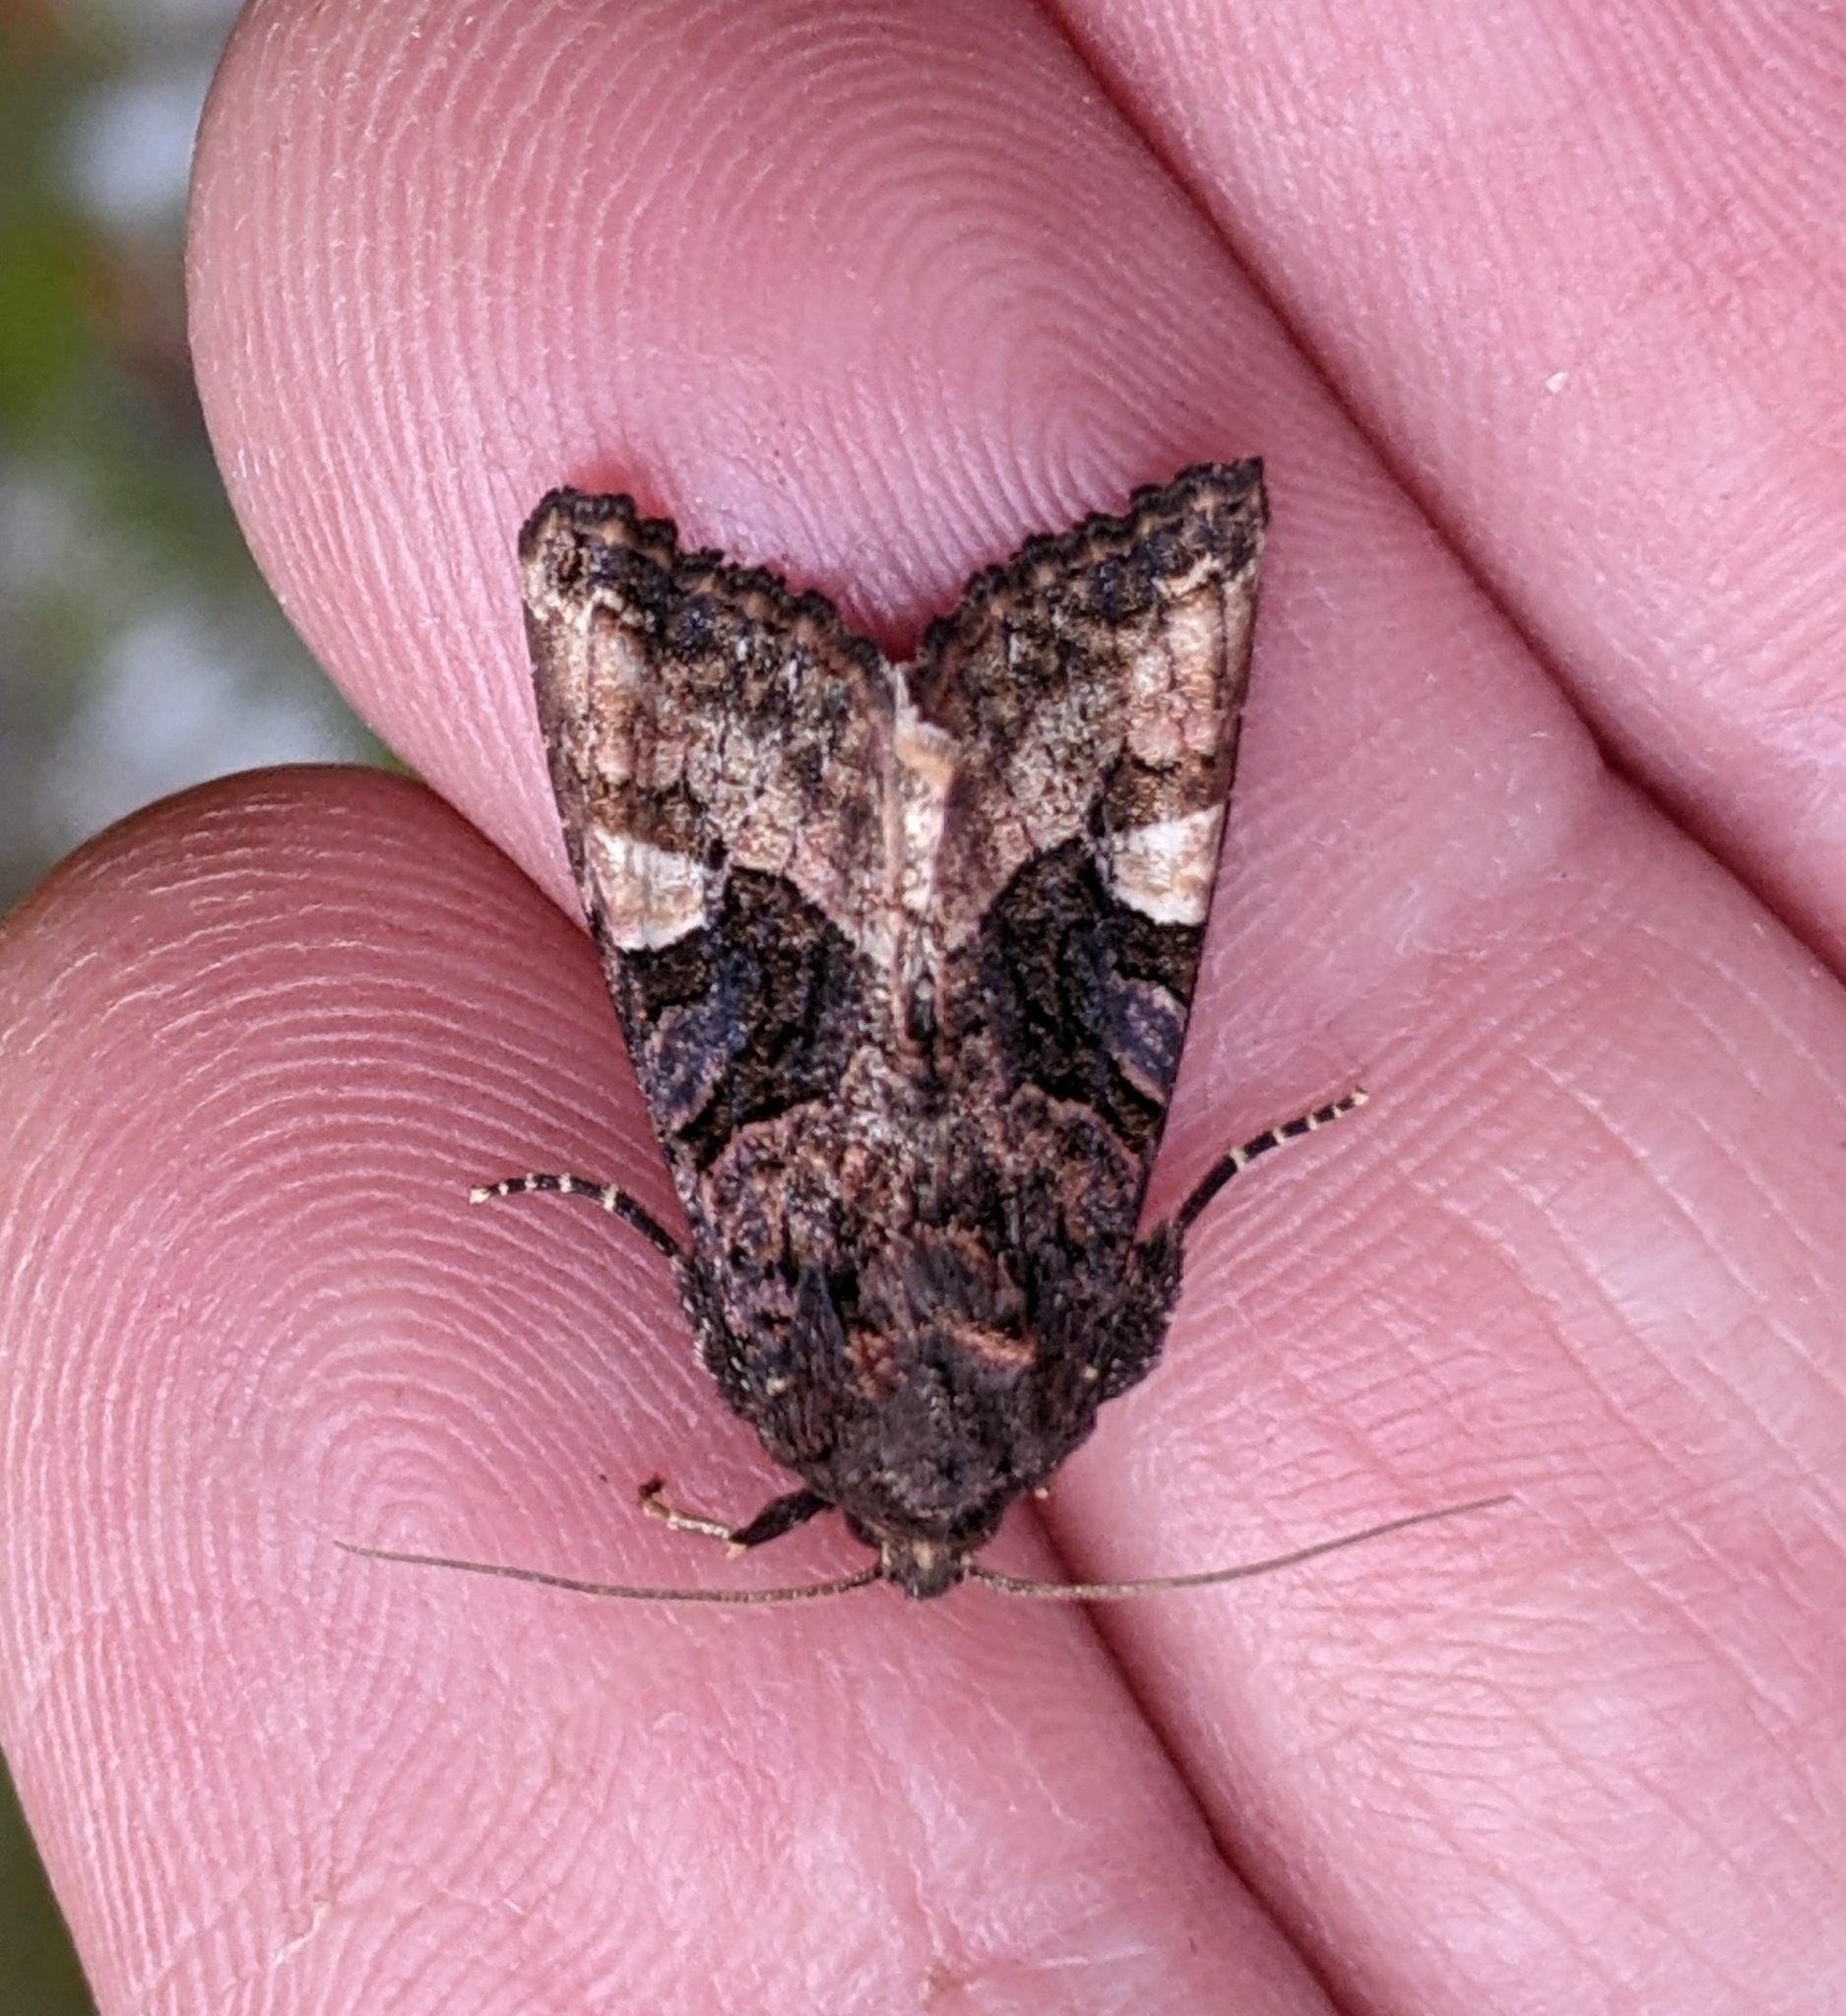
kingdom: Animalia
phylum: Arthropoda
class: Insecta
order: Lepidoptera
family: Noctuidae
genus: Euplexia
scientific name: Euplexia benesimilis
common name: American angle shades
